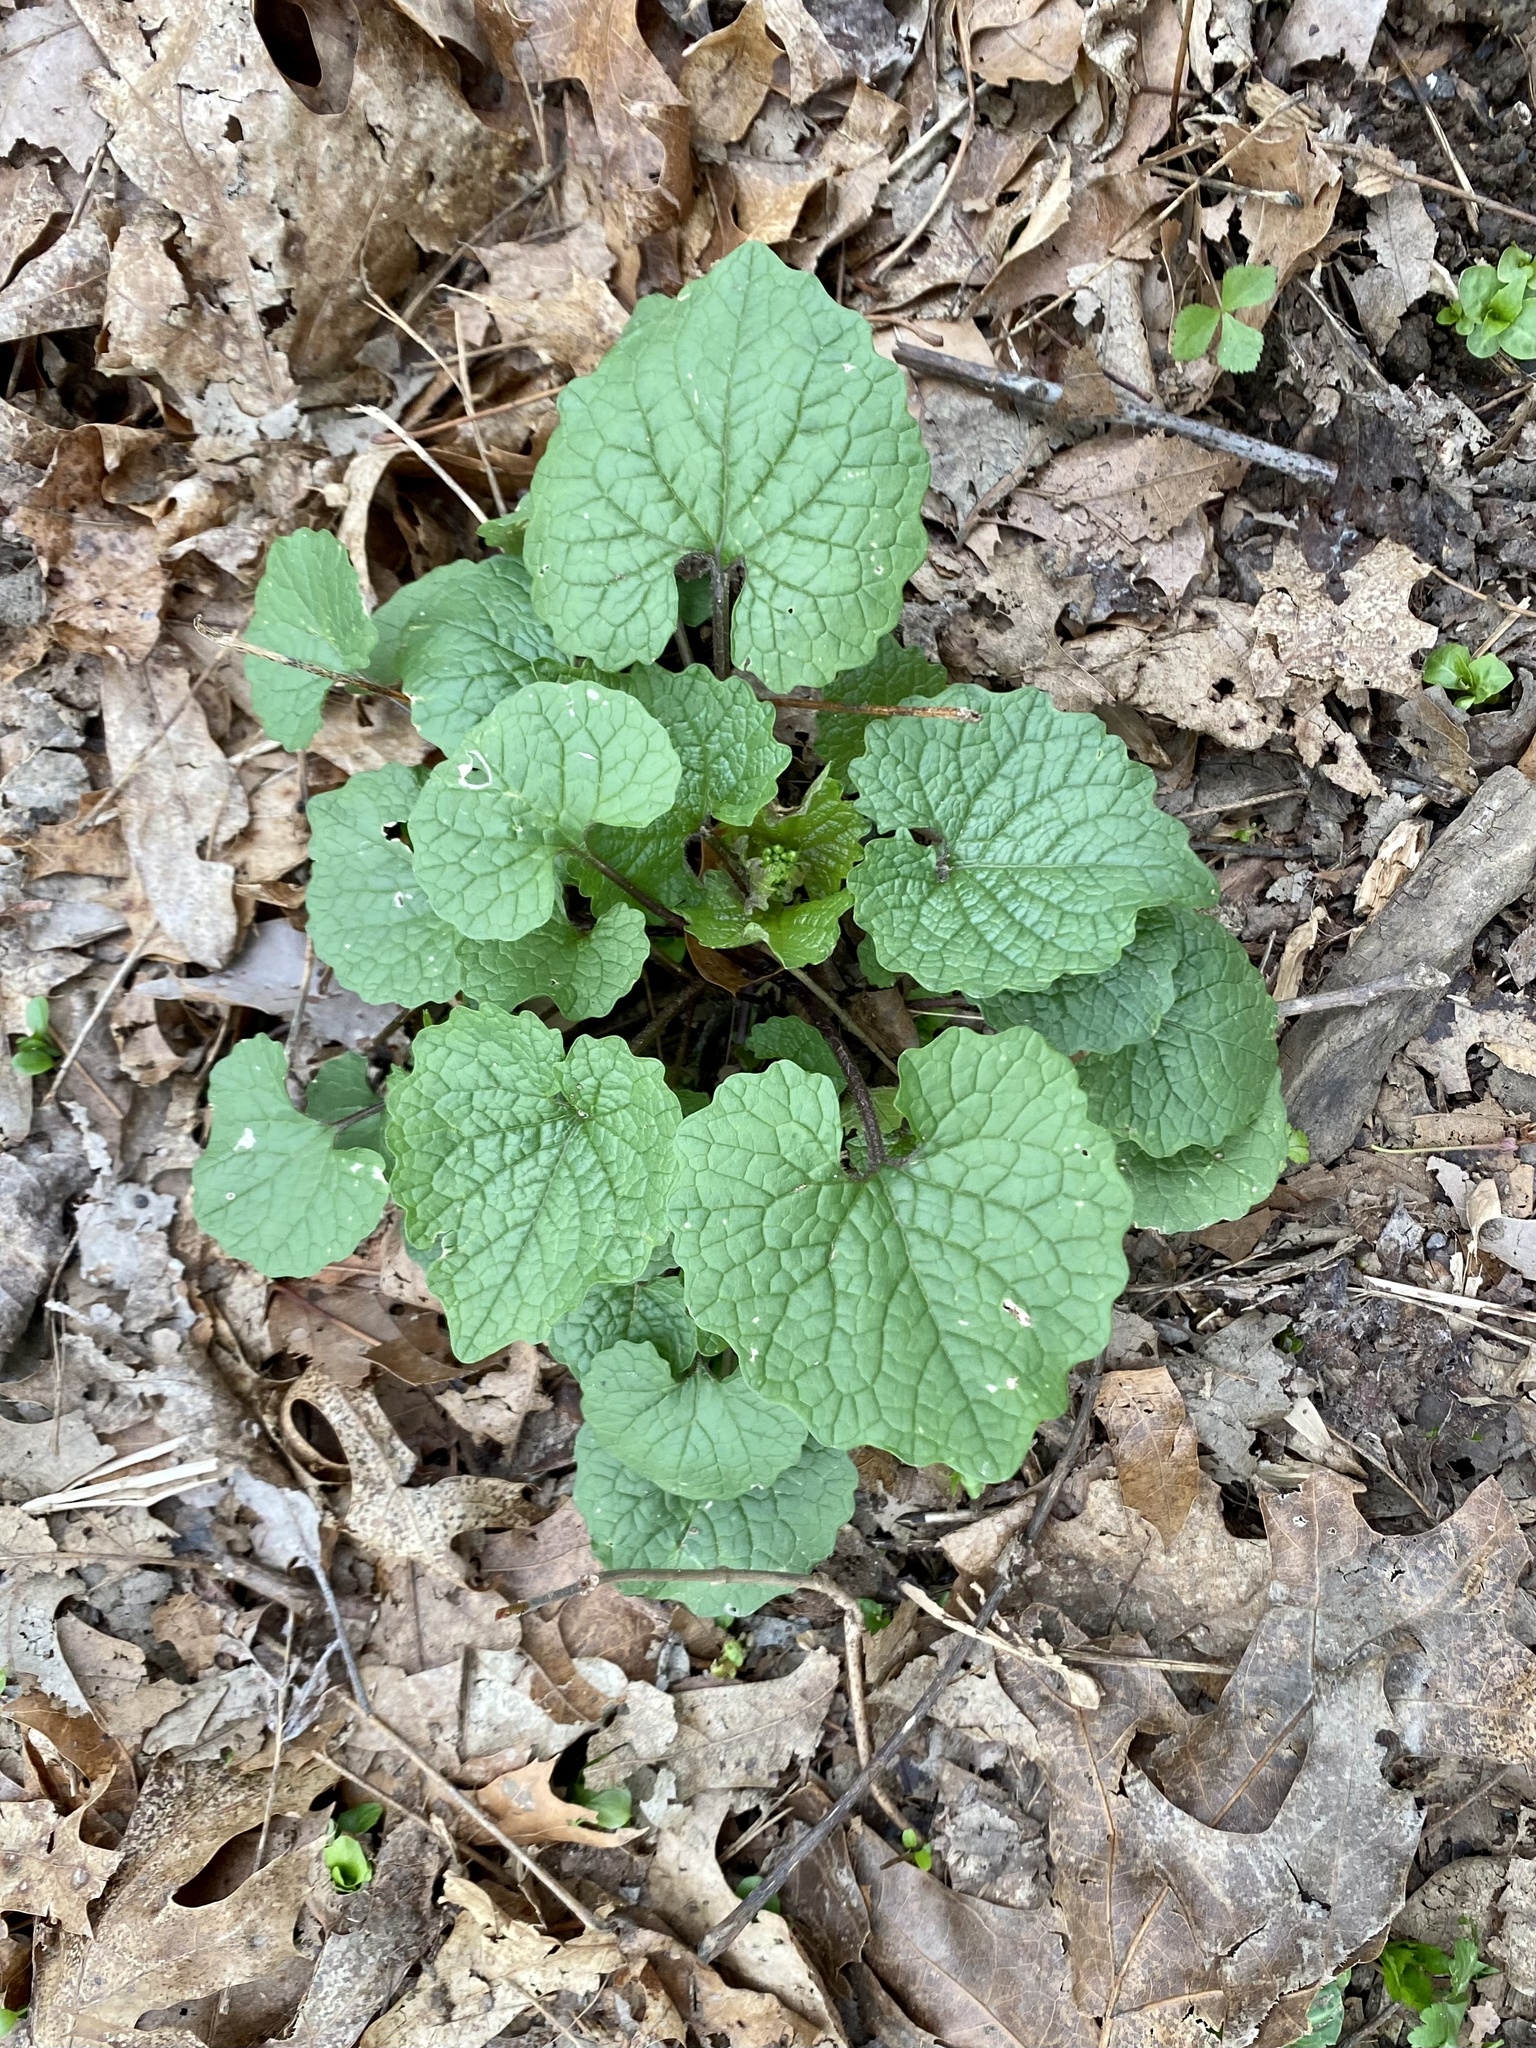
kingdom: Plantae
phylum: Tracheophyta
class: Magnoliopsida
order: Brassicales
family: Brassicaceae
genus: Alliaria
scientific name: Alliaria petiolata
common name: Garlic mustard
